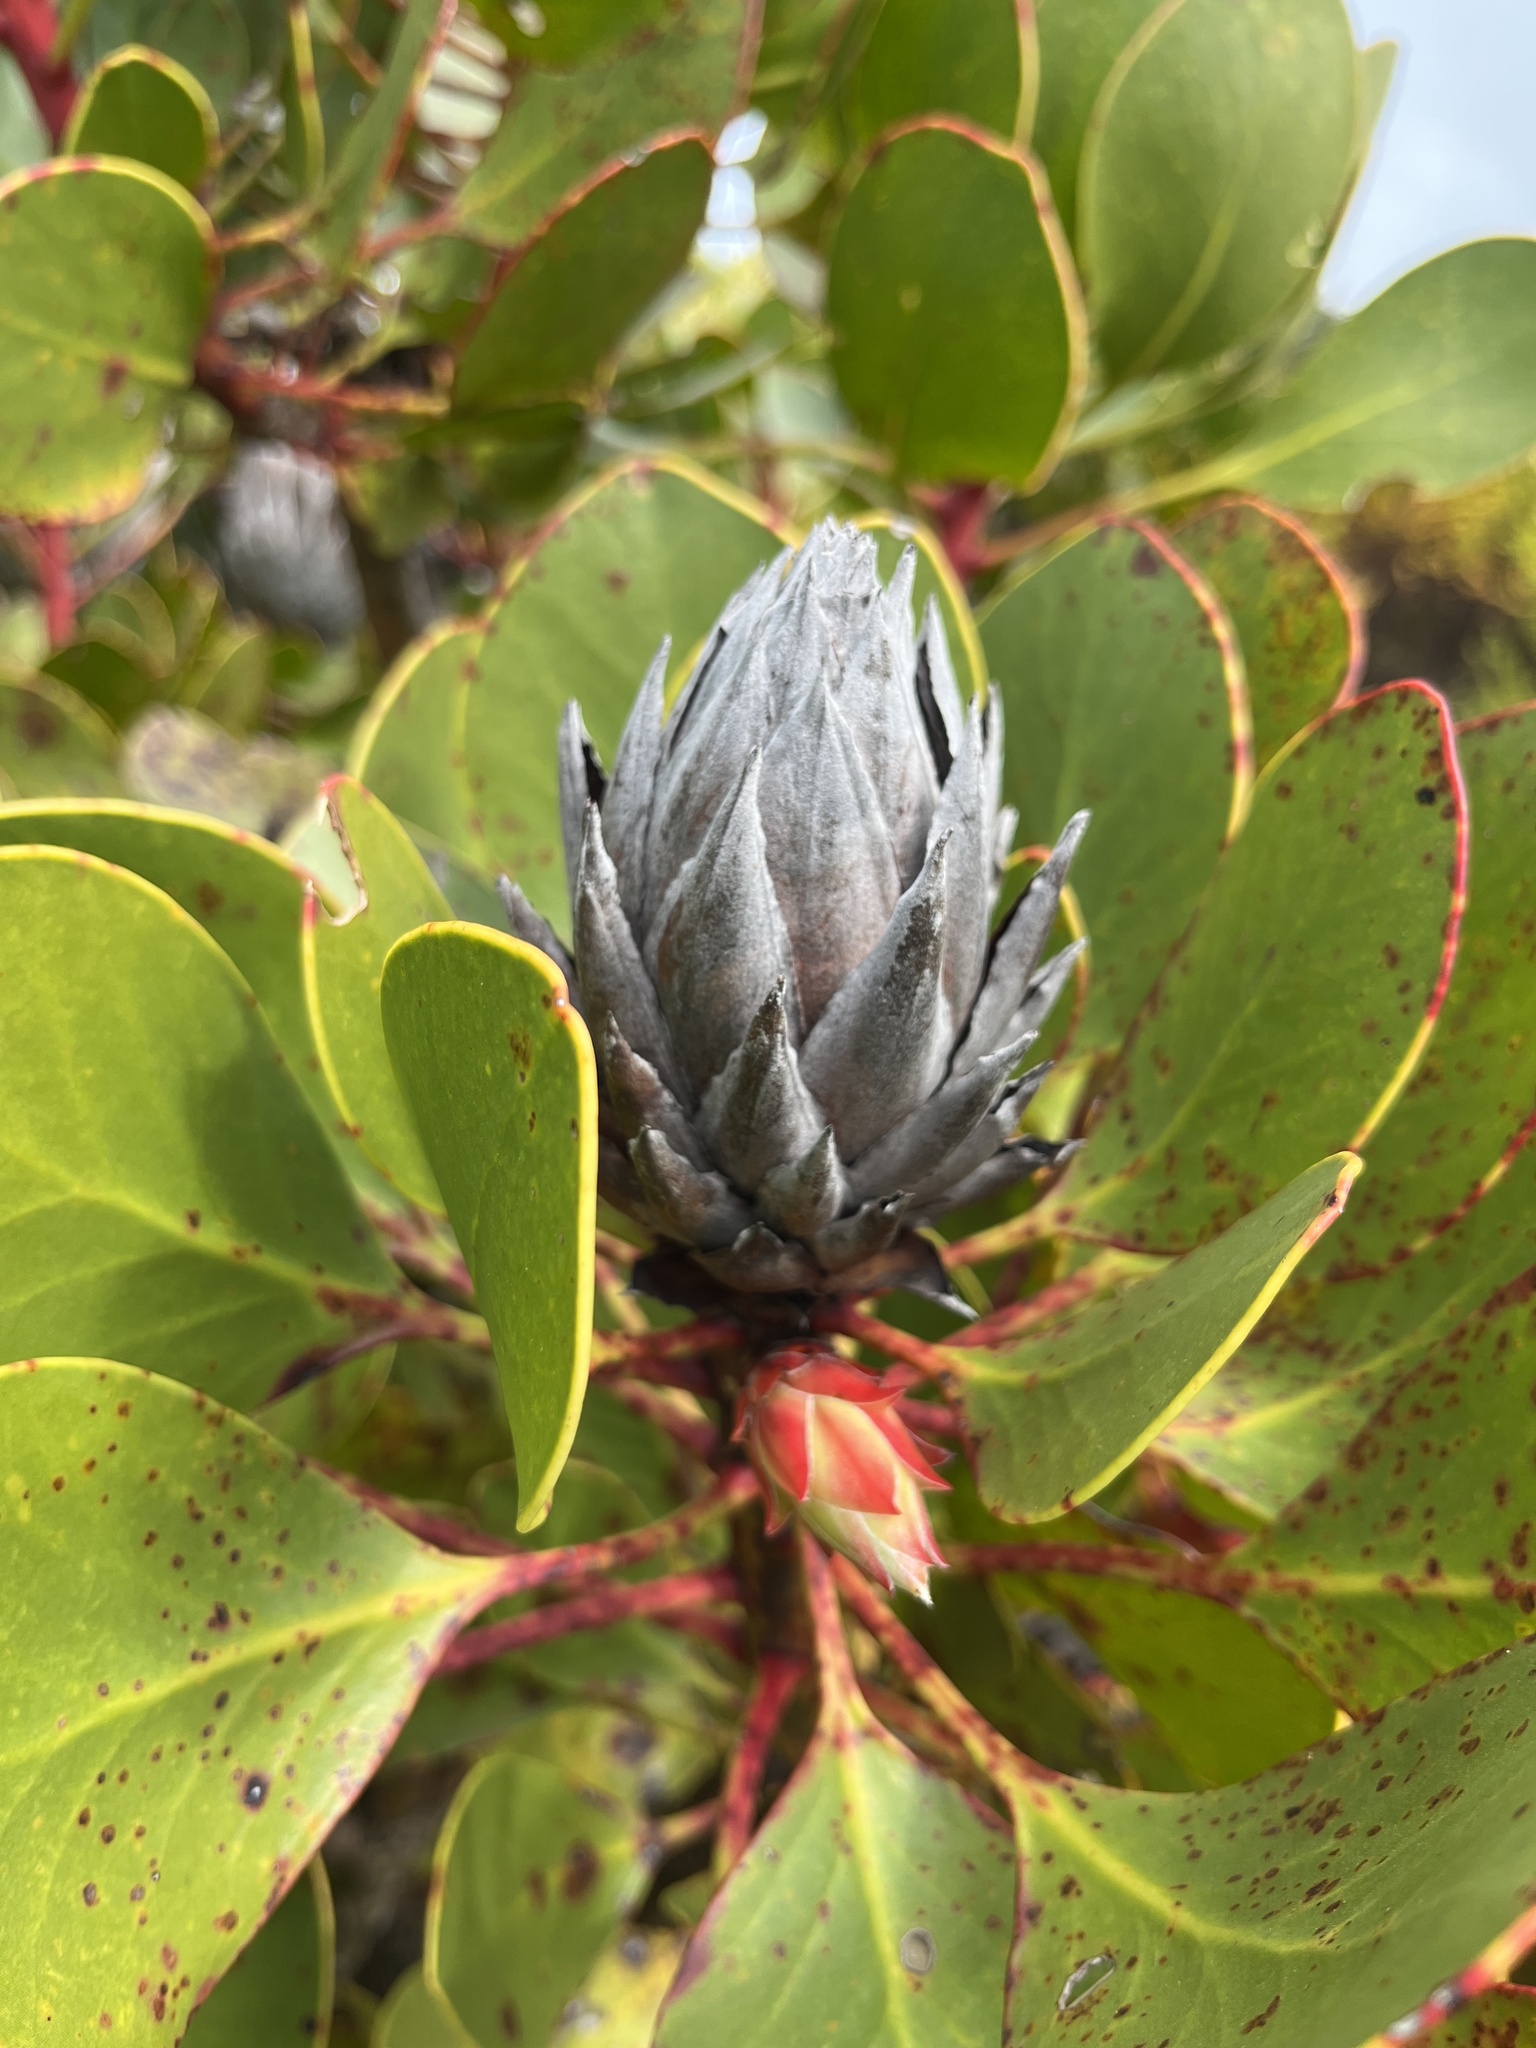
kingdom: Plantae
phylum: Tracheophyta
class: Magnoliopsida
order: Proteales
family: Proteaceae
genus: Protea
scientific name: Protea cynaroides
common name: King protea
